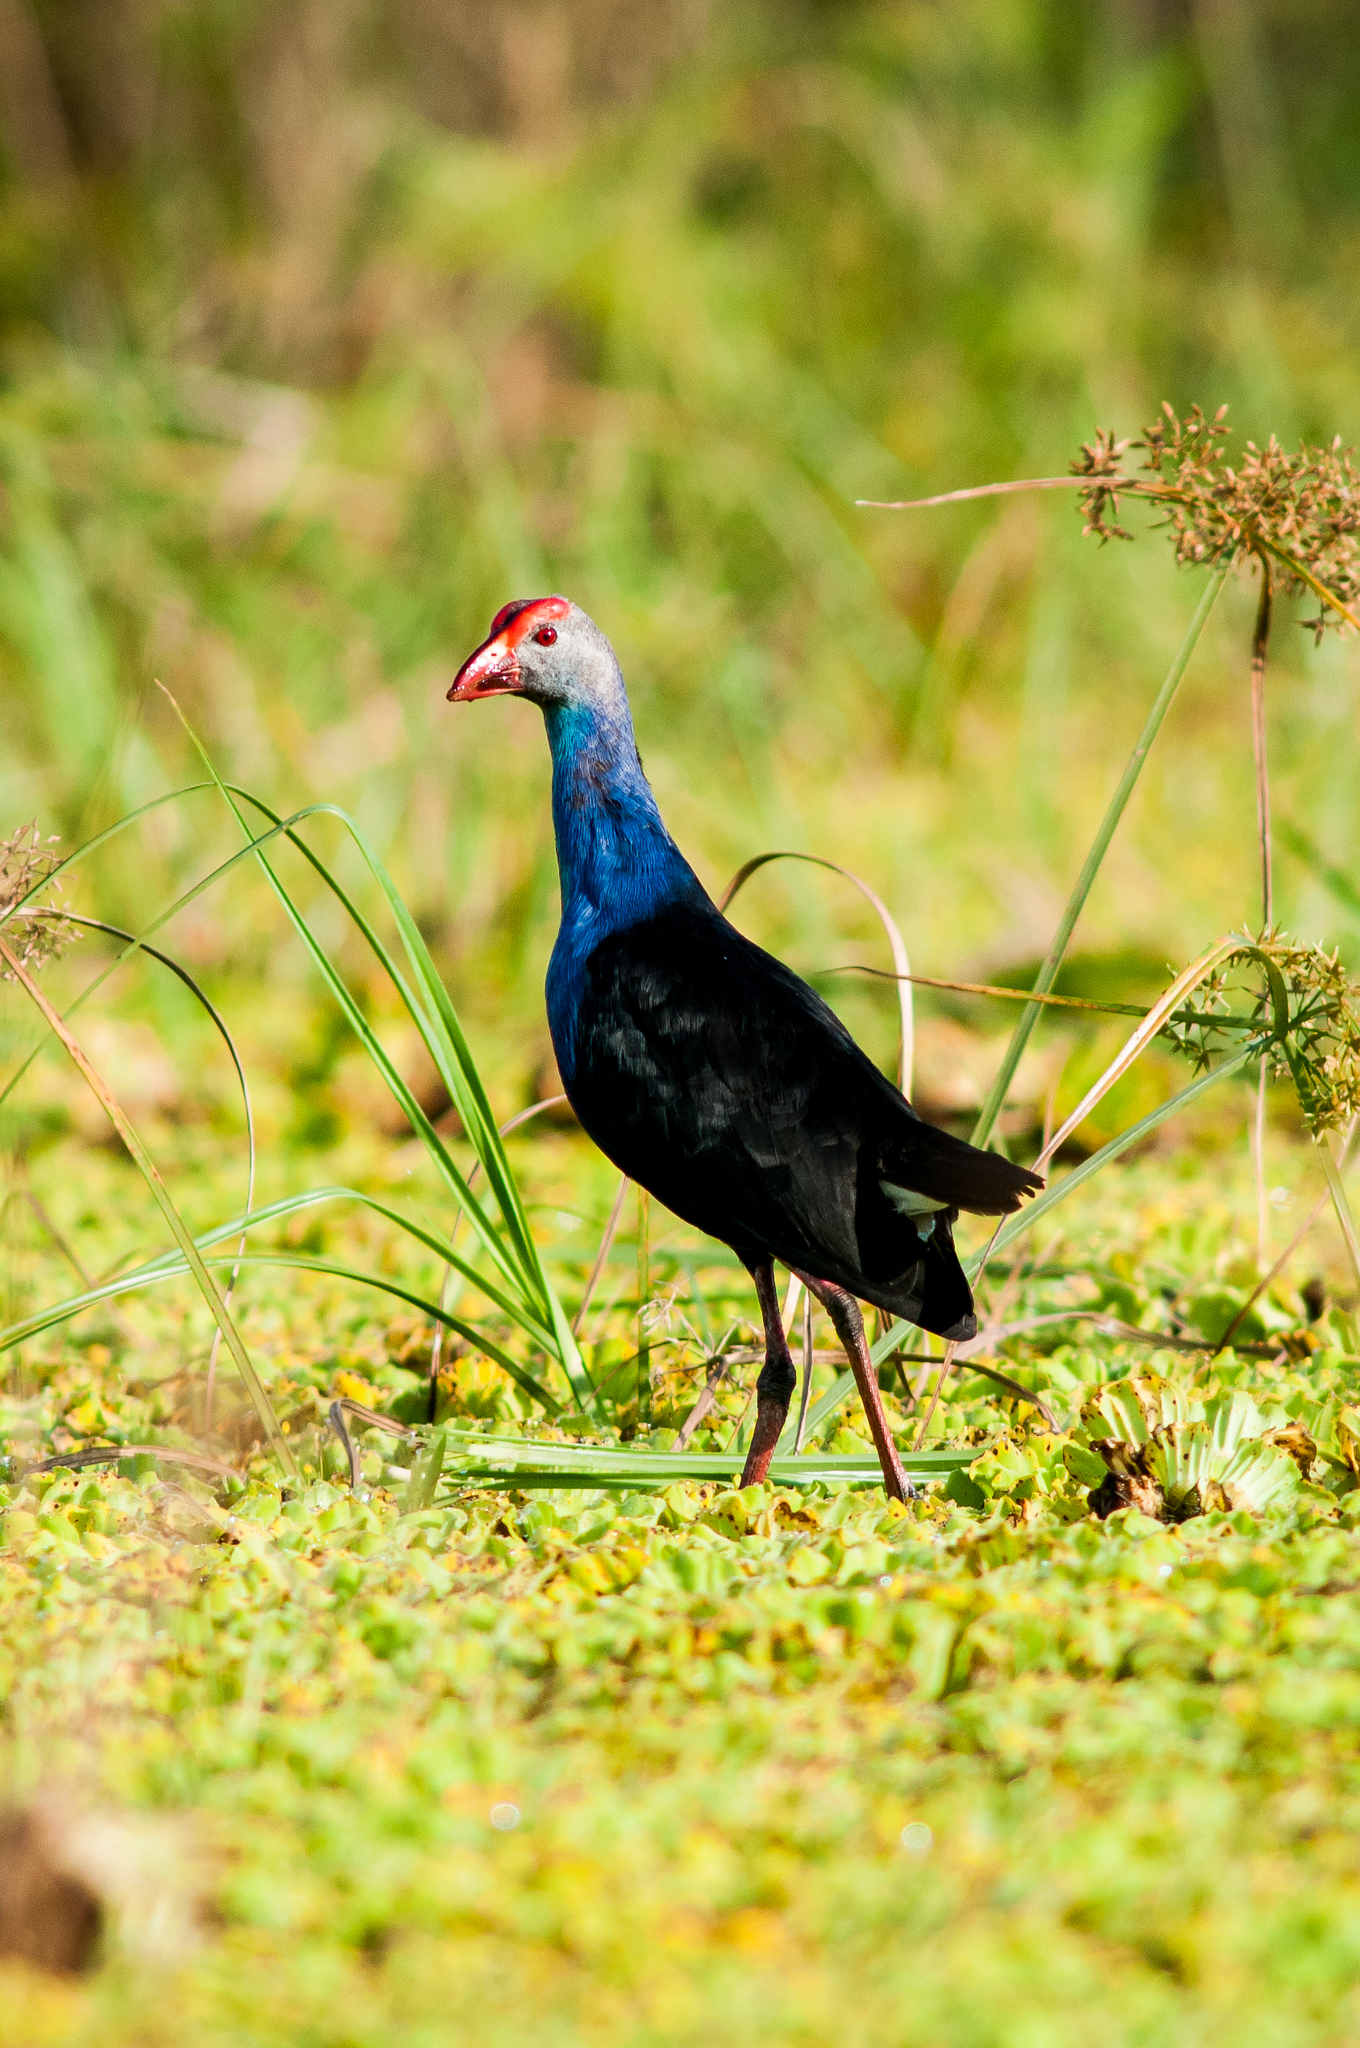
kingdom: Animalia
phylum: Chordata
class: Aves
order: Gruiformes
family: Rallidae
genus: Porphyrio
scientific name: Porphyrio porphyrio
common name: Purple swamphen
